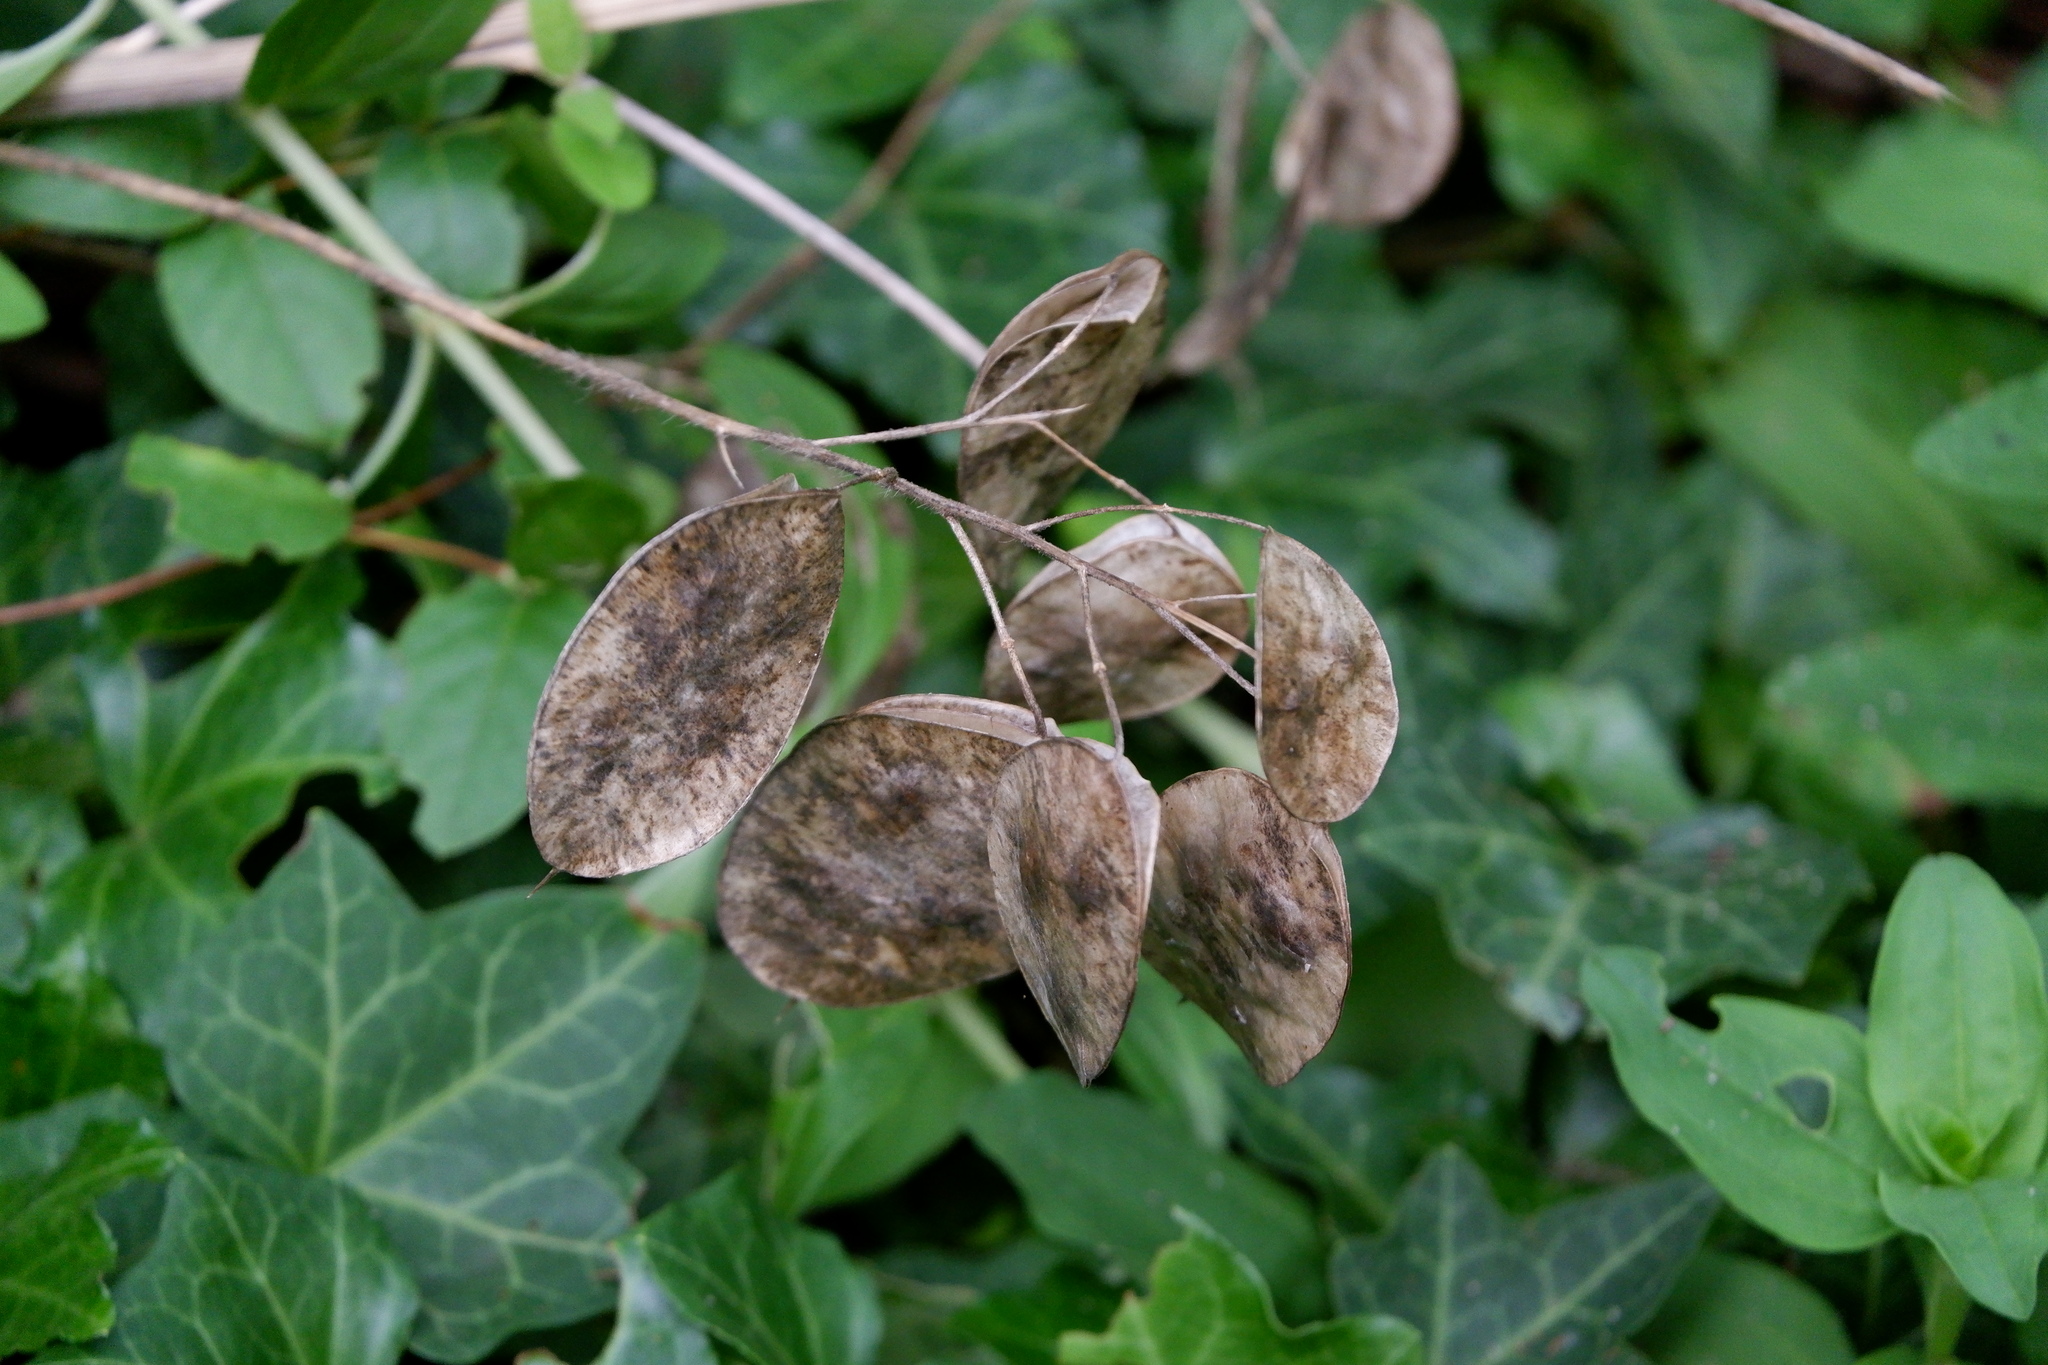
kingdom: Plantae
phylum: Tracheophyta
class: Magnoliopsida
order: Brassicales
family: Brassicaceae
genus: Lunaria
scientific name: Lunaria annua
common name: Honesty
